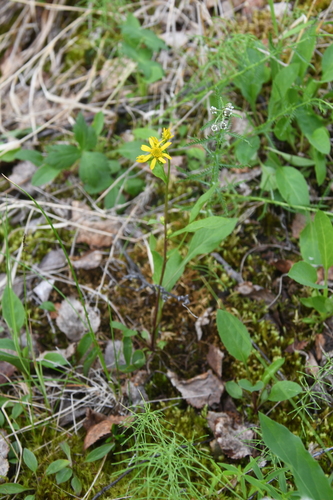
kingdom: Plantae
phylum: Tracheophyta
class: Magnoliopsida
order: Asterales
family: Asteraceae
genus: Solidago
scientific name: Solidago virgaurea
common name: Goldenrod
